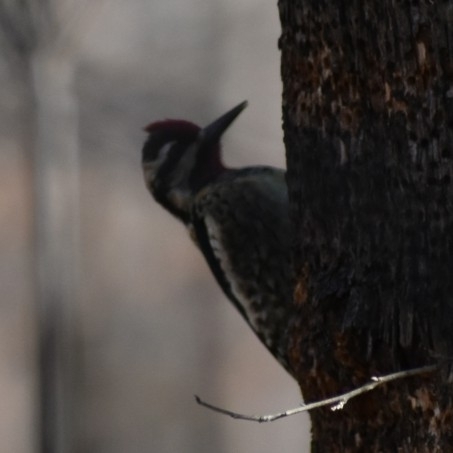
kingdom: Animalia
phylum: Chordata
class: Aves
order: Piciformes
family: Picidae
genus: Sphyrapicus
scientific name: Sphyrapicus varius
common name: Yellow-bellied sapsucker
